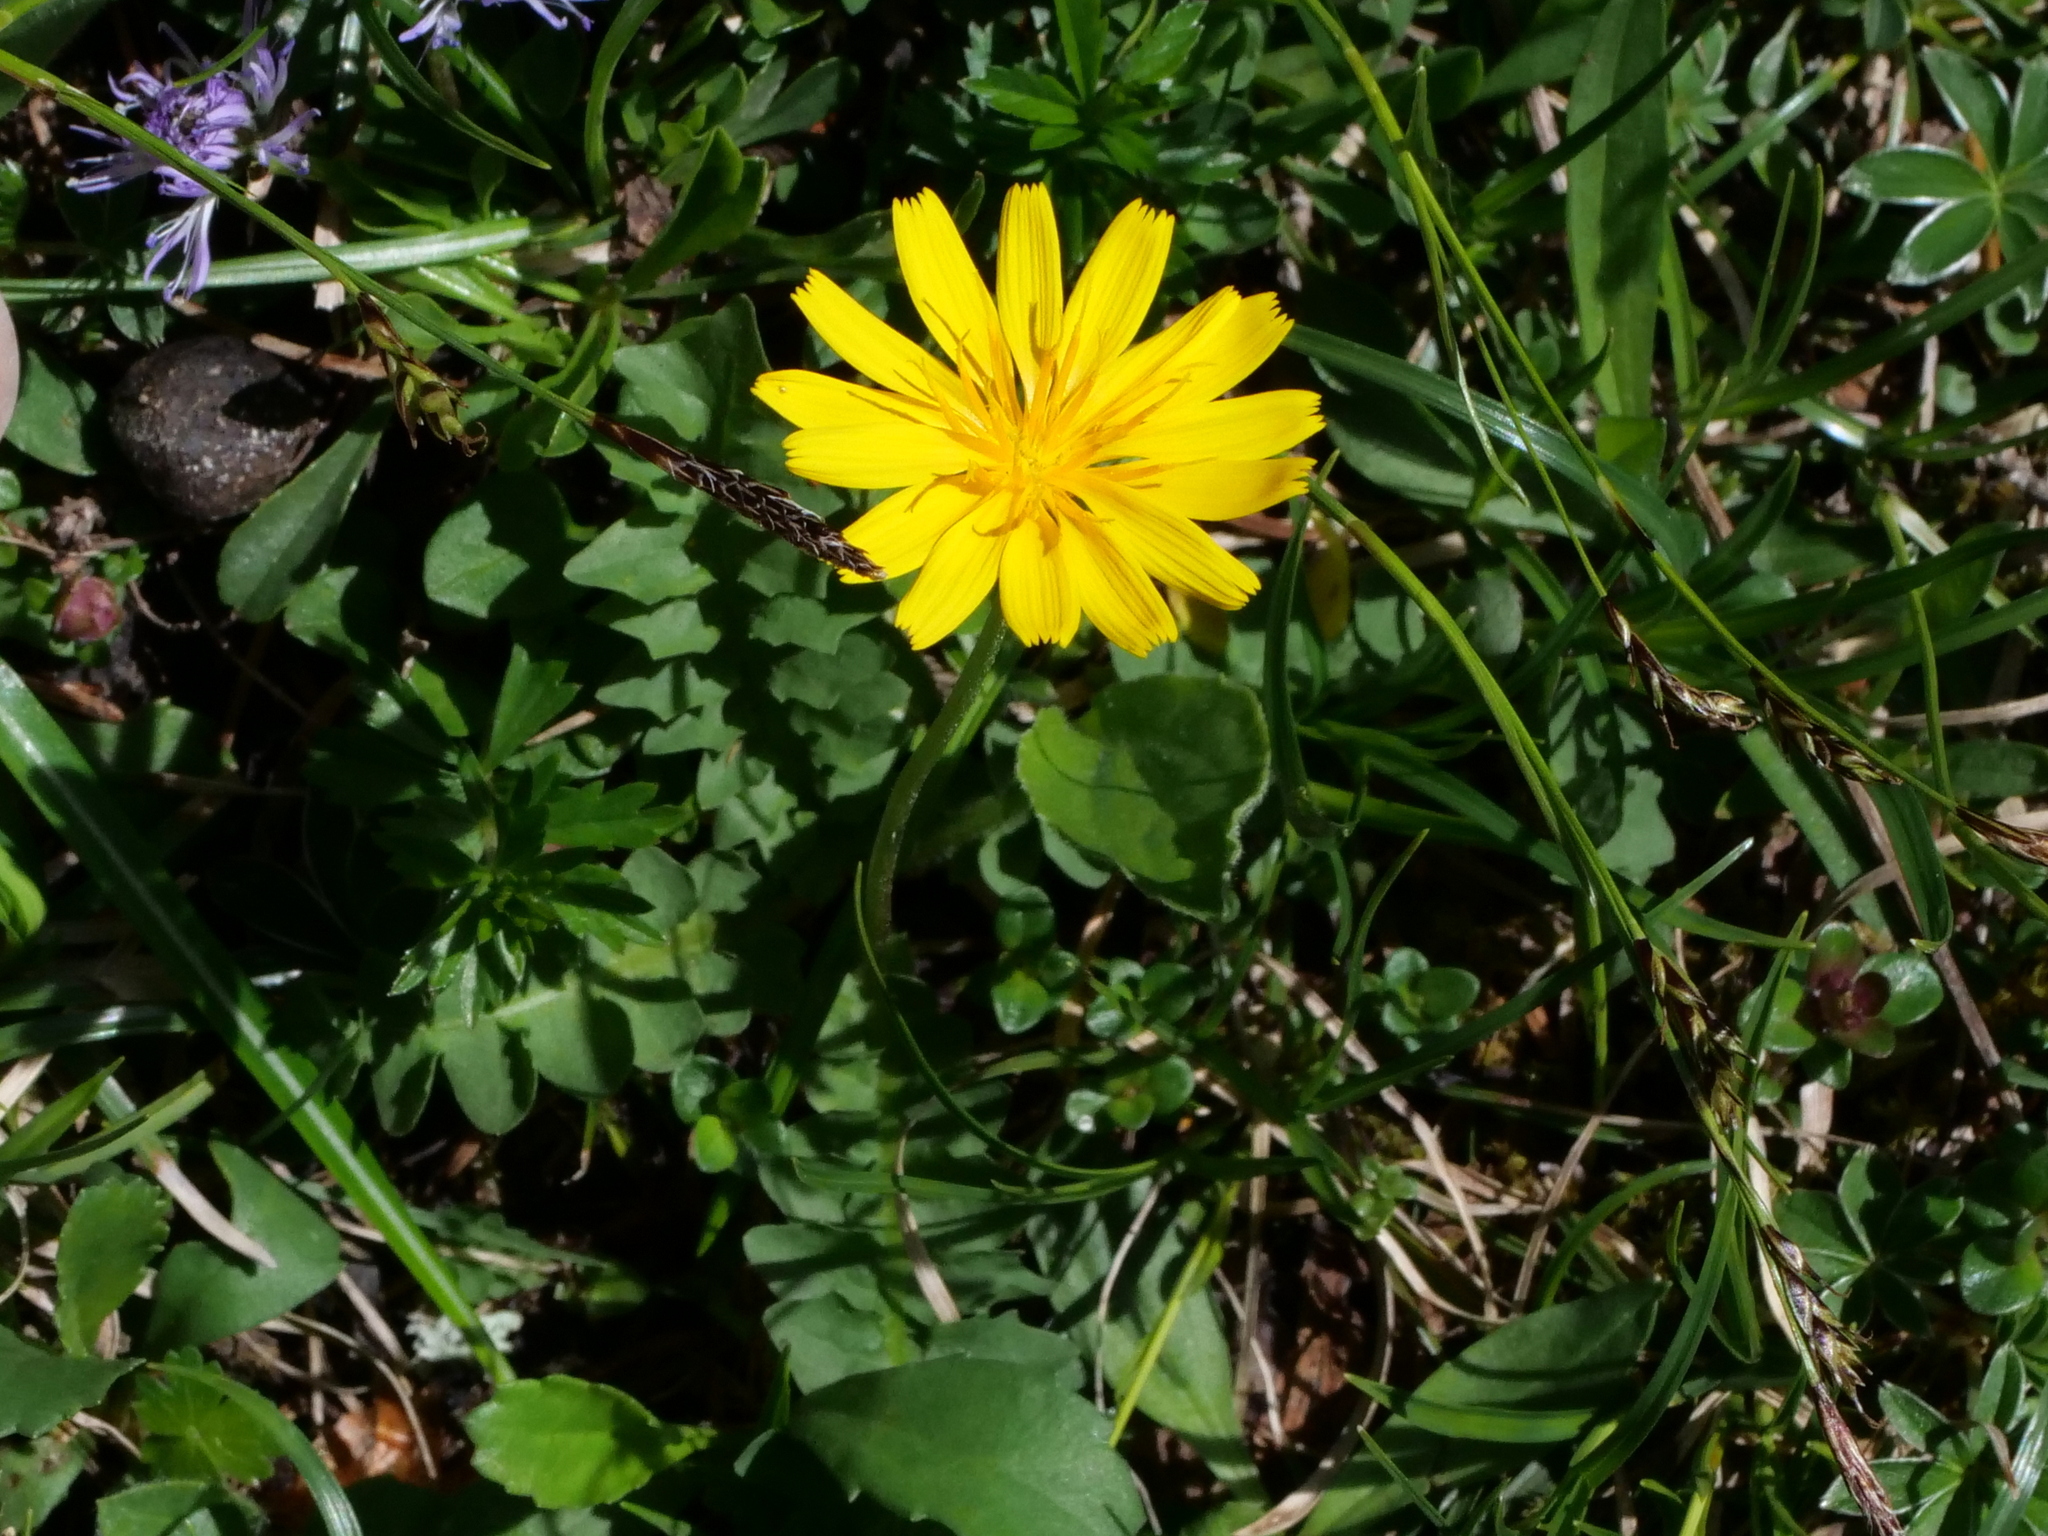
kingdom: Plantae
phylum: Tracheophyta
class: Magnoliopsida
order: Asterales
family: Asteraceae
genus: Aposeris
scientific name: Aposeris foetida
